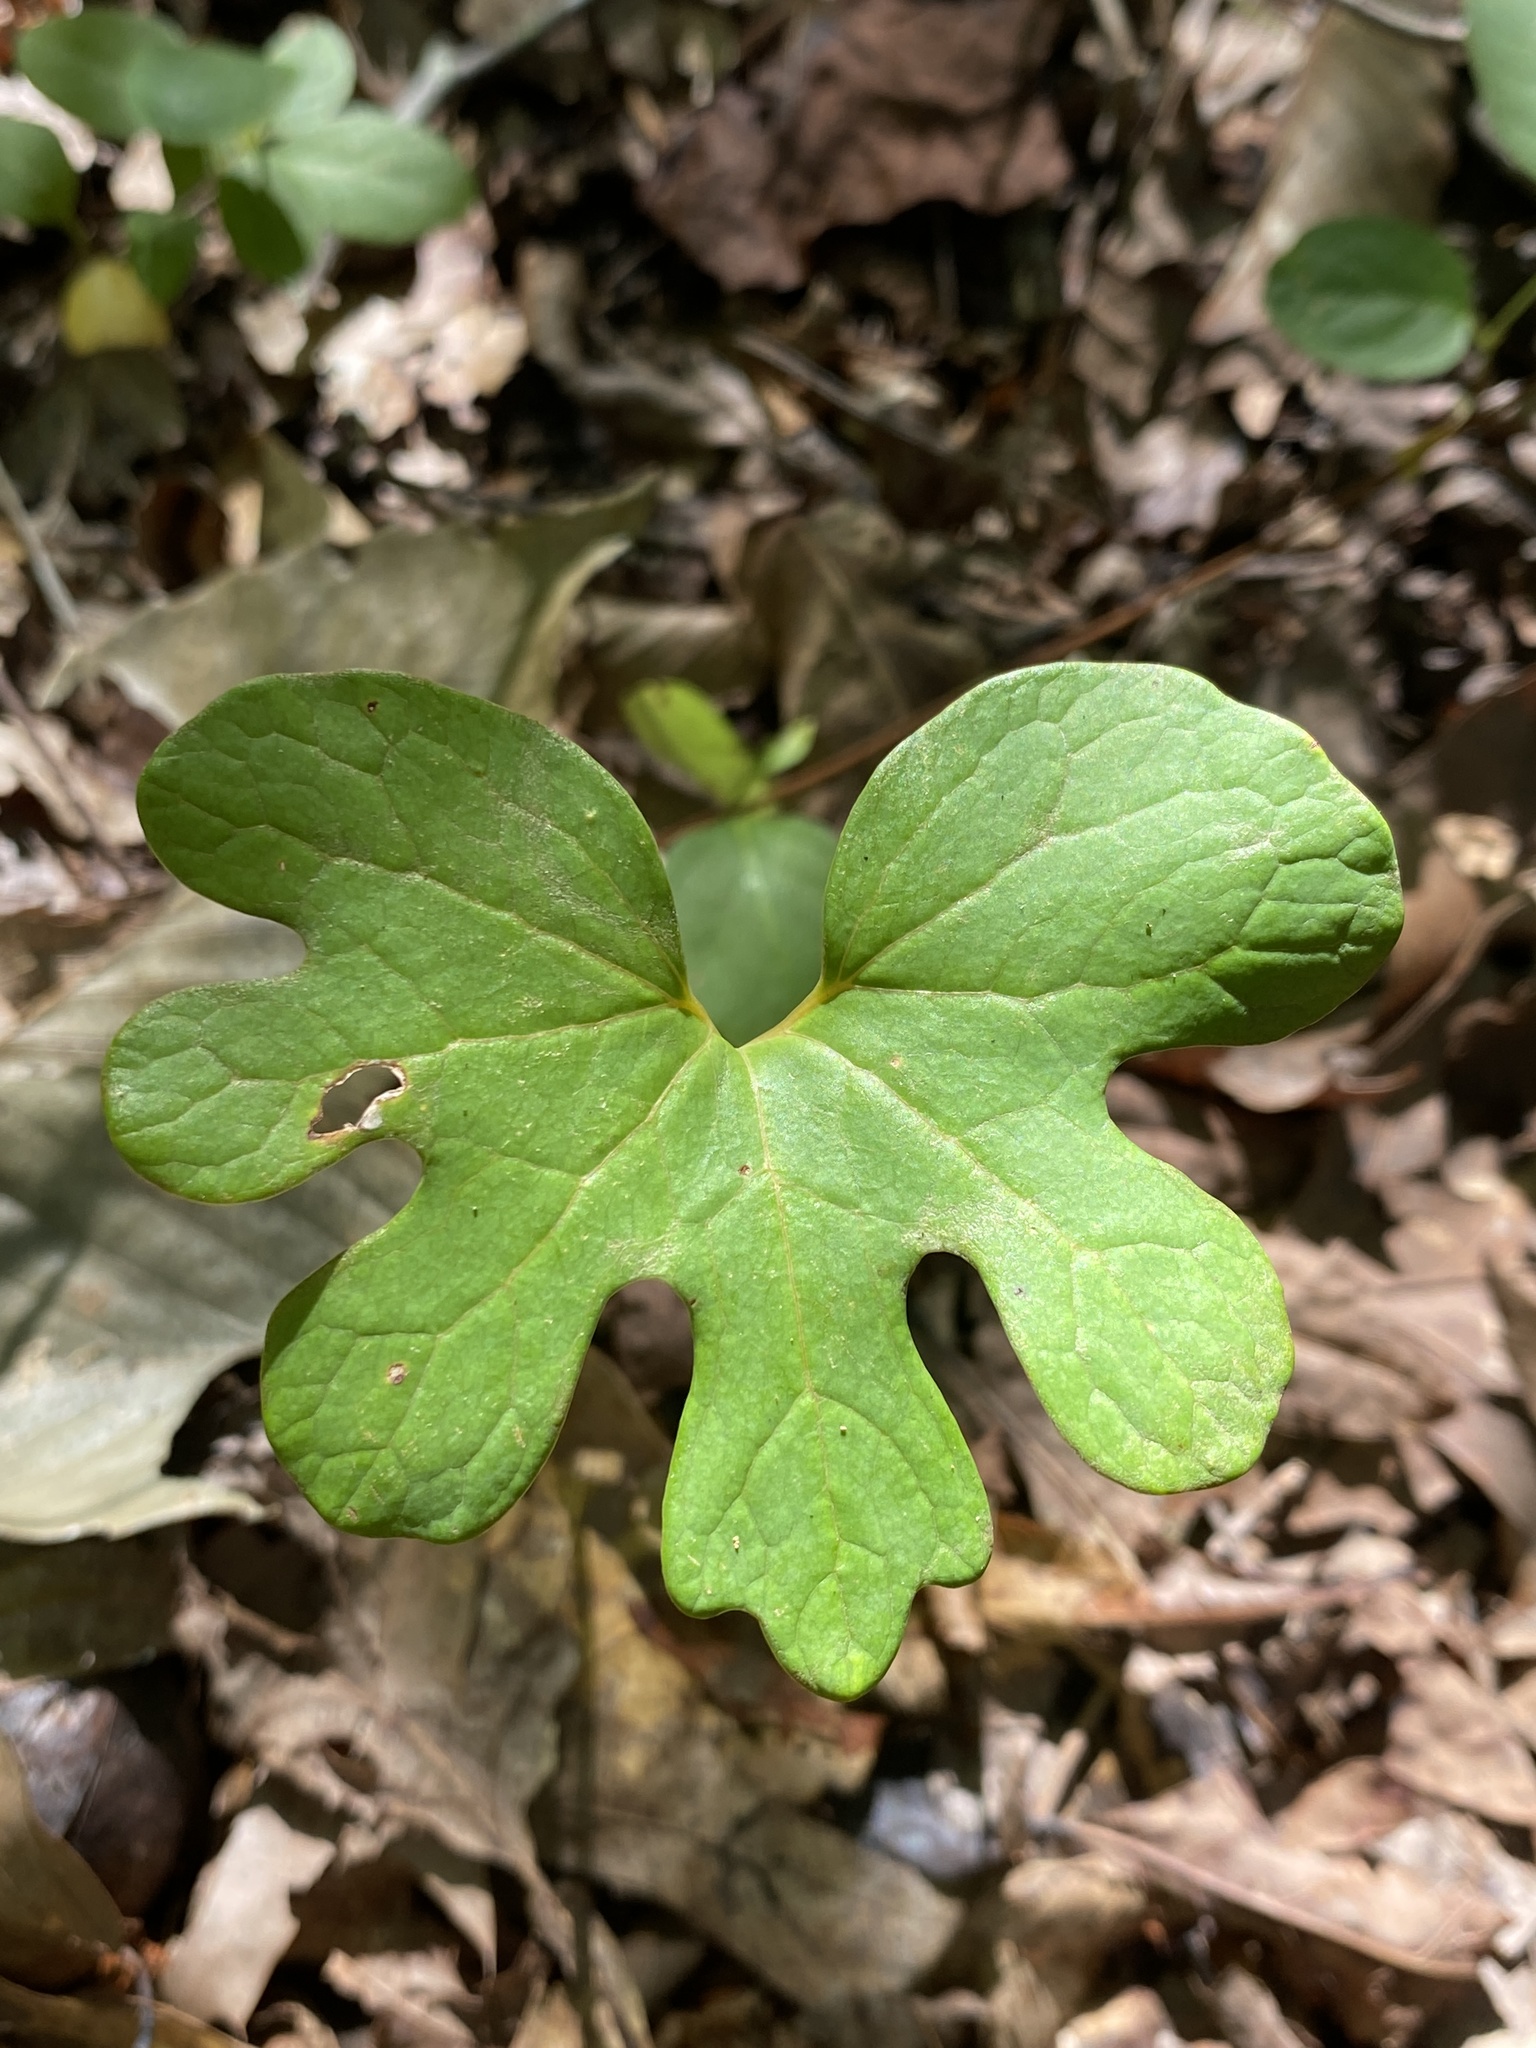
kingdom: Plantae
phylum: Tracheophyta
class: Magnoliopsida
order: Ranunculales
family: Papaveraceae
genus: Sanguinaria
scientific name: Sanguinaria canadensis
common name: Bloodroot
